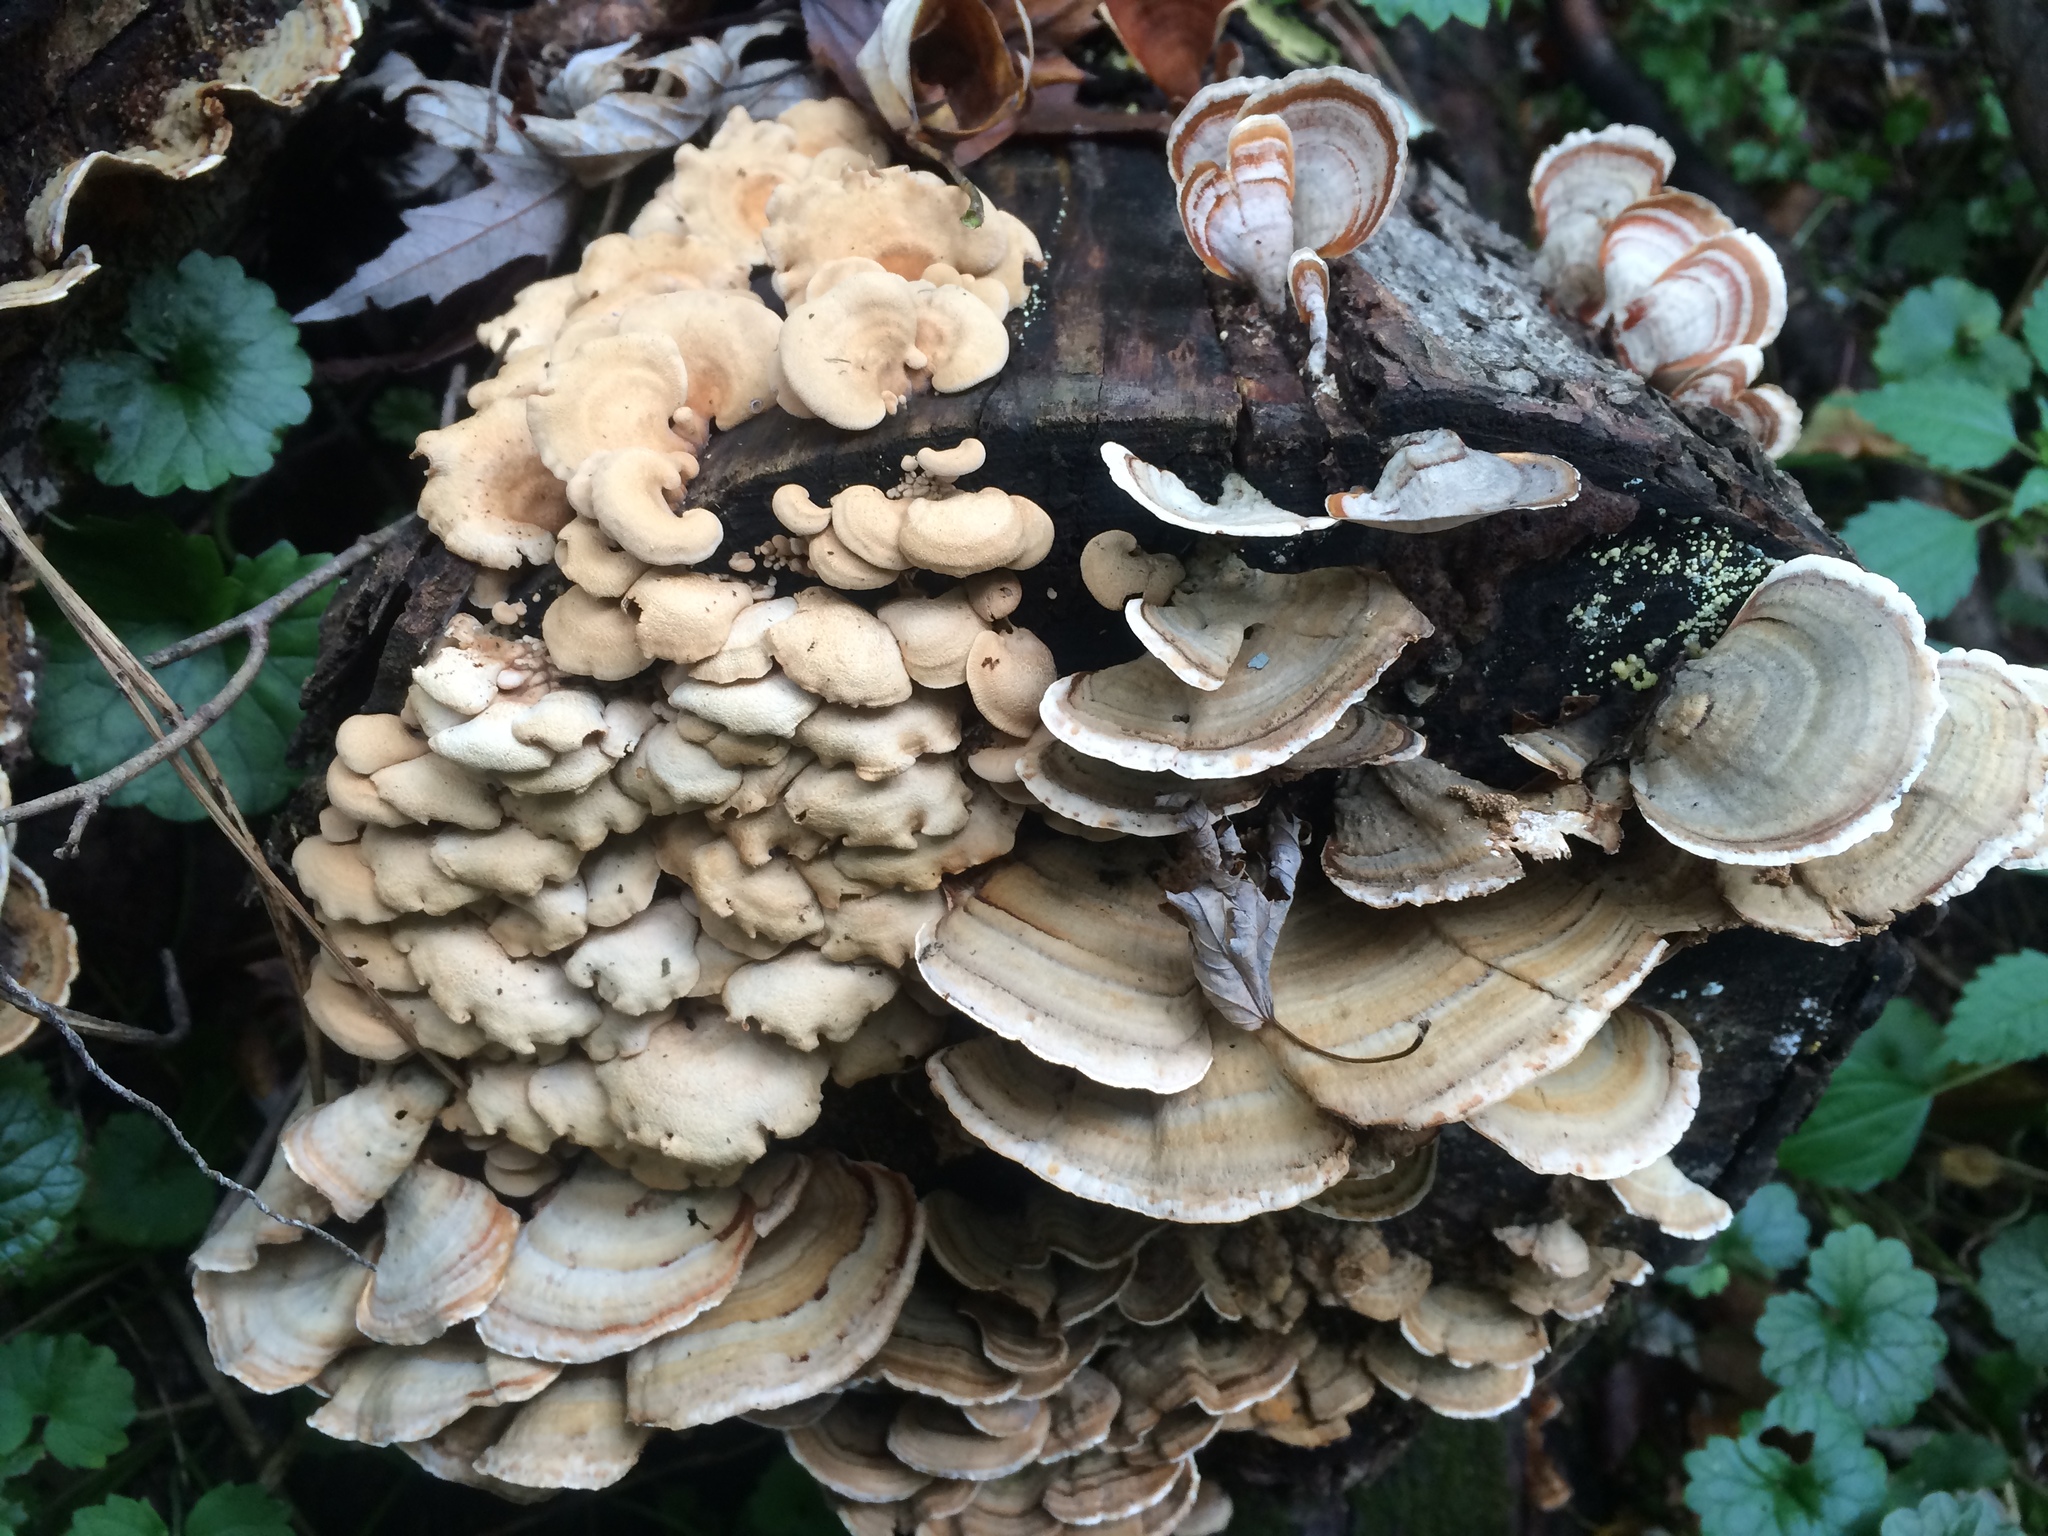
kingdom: Fungi
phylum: Basidiomycota
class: Agaricomycetes
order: Agaricales
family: Mycenaceae
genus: Panellus
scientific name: Panellus stipticus
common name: Bitter oysterling
